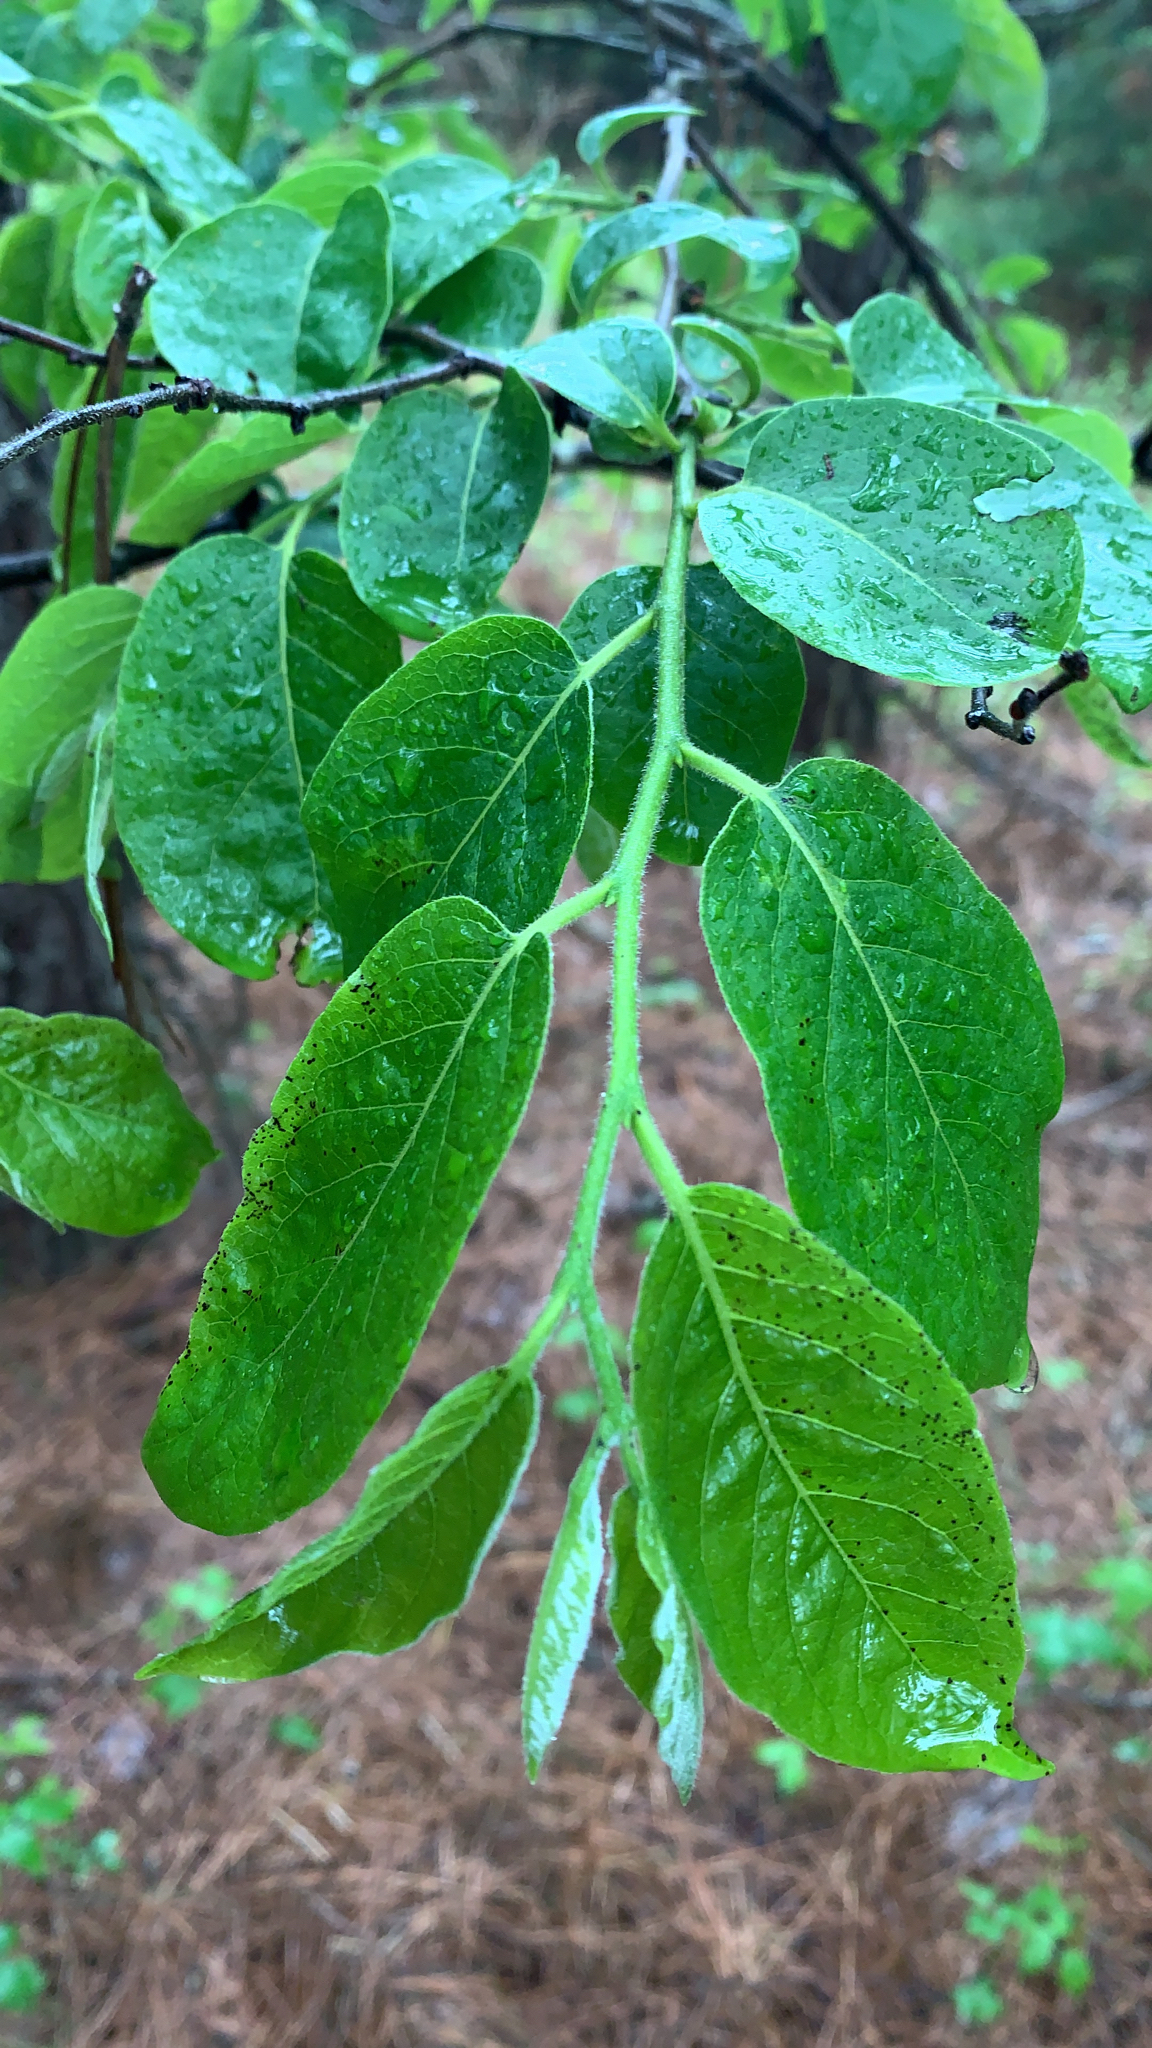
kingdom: Plantae
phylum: Tracheophyta
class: Magnoliopsida
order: Ericales
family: Ebenaceae
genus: Diospyros
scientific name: Diospyros virginiana
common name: Persimmon
